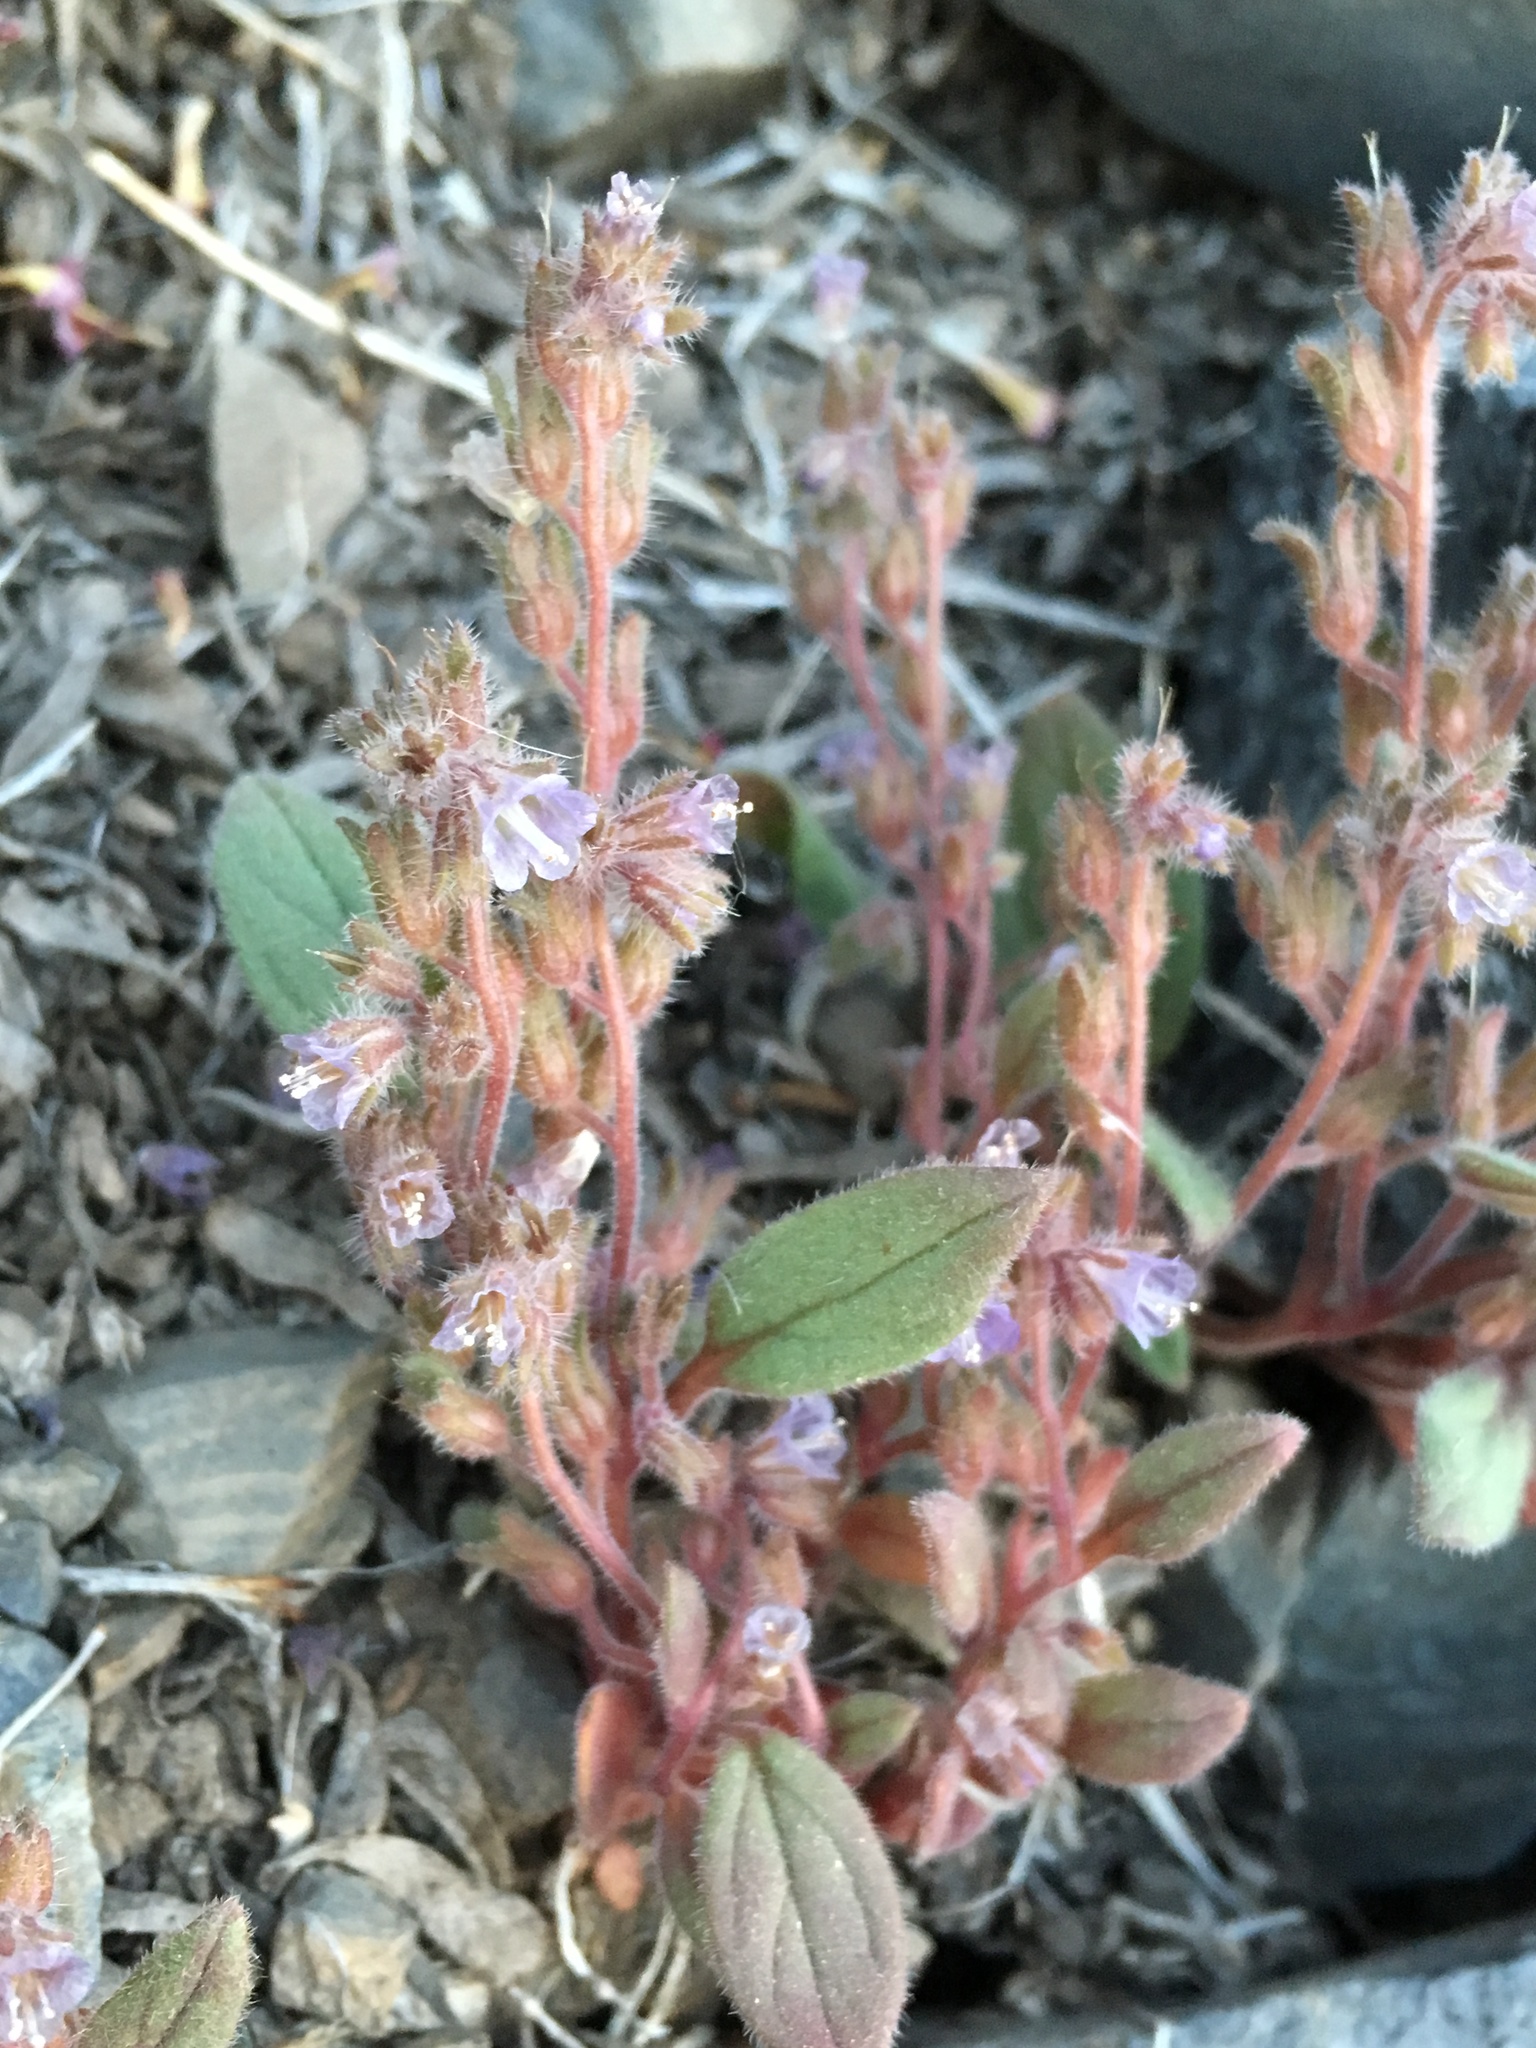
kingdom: Plantae
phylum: Tracheophyta
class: Magnoliopsida
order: Boraginales
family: Hydrophyllaceae
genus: Phacelia
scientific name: Phacelia austromontana
